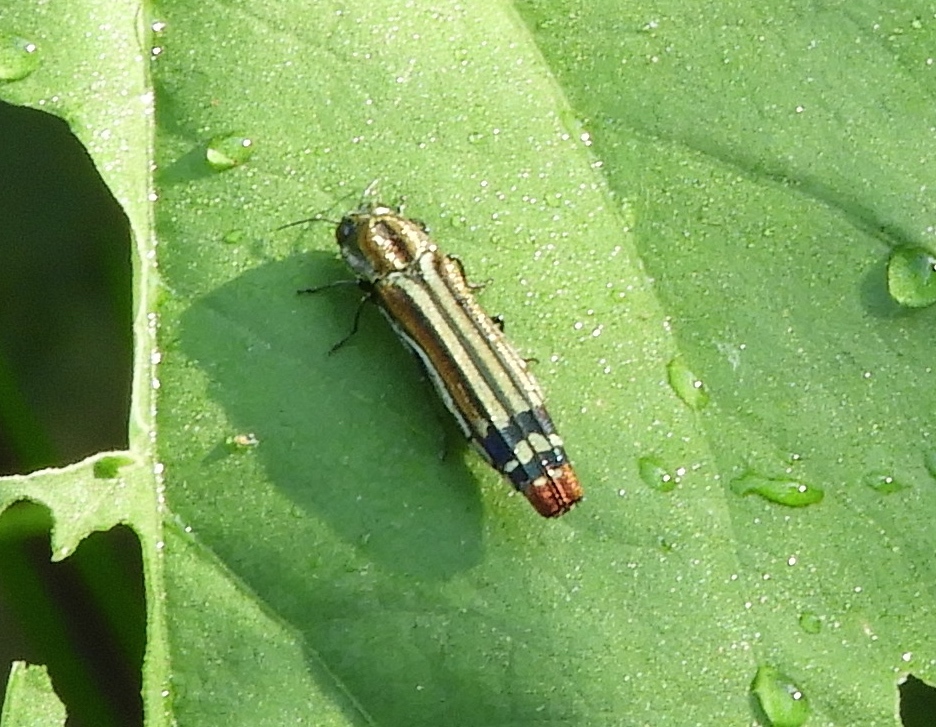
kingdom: Animalia
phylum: Arthropoda
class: Insecta
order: Coleoptera
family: Buprestidae
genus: Agrilus
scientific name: Agrilus catherinae
